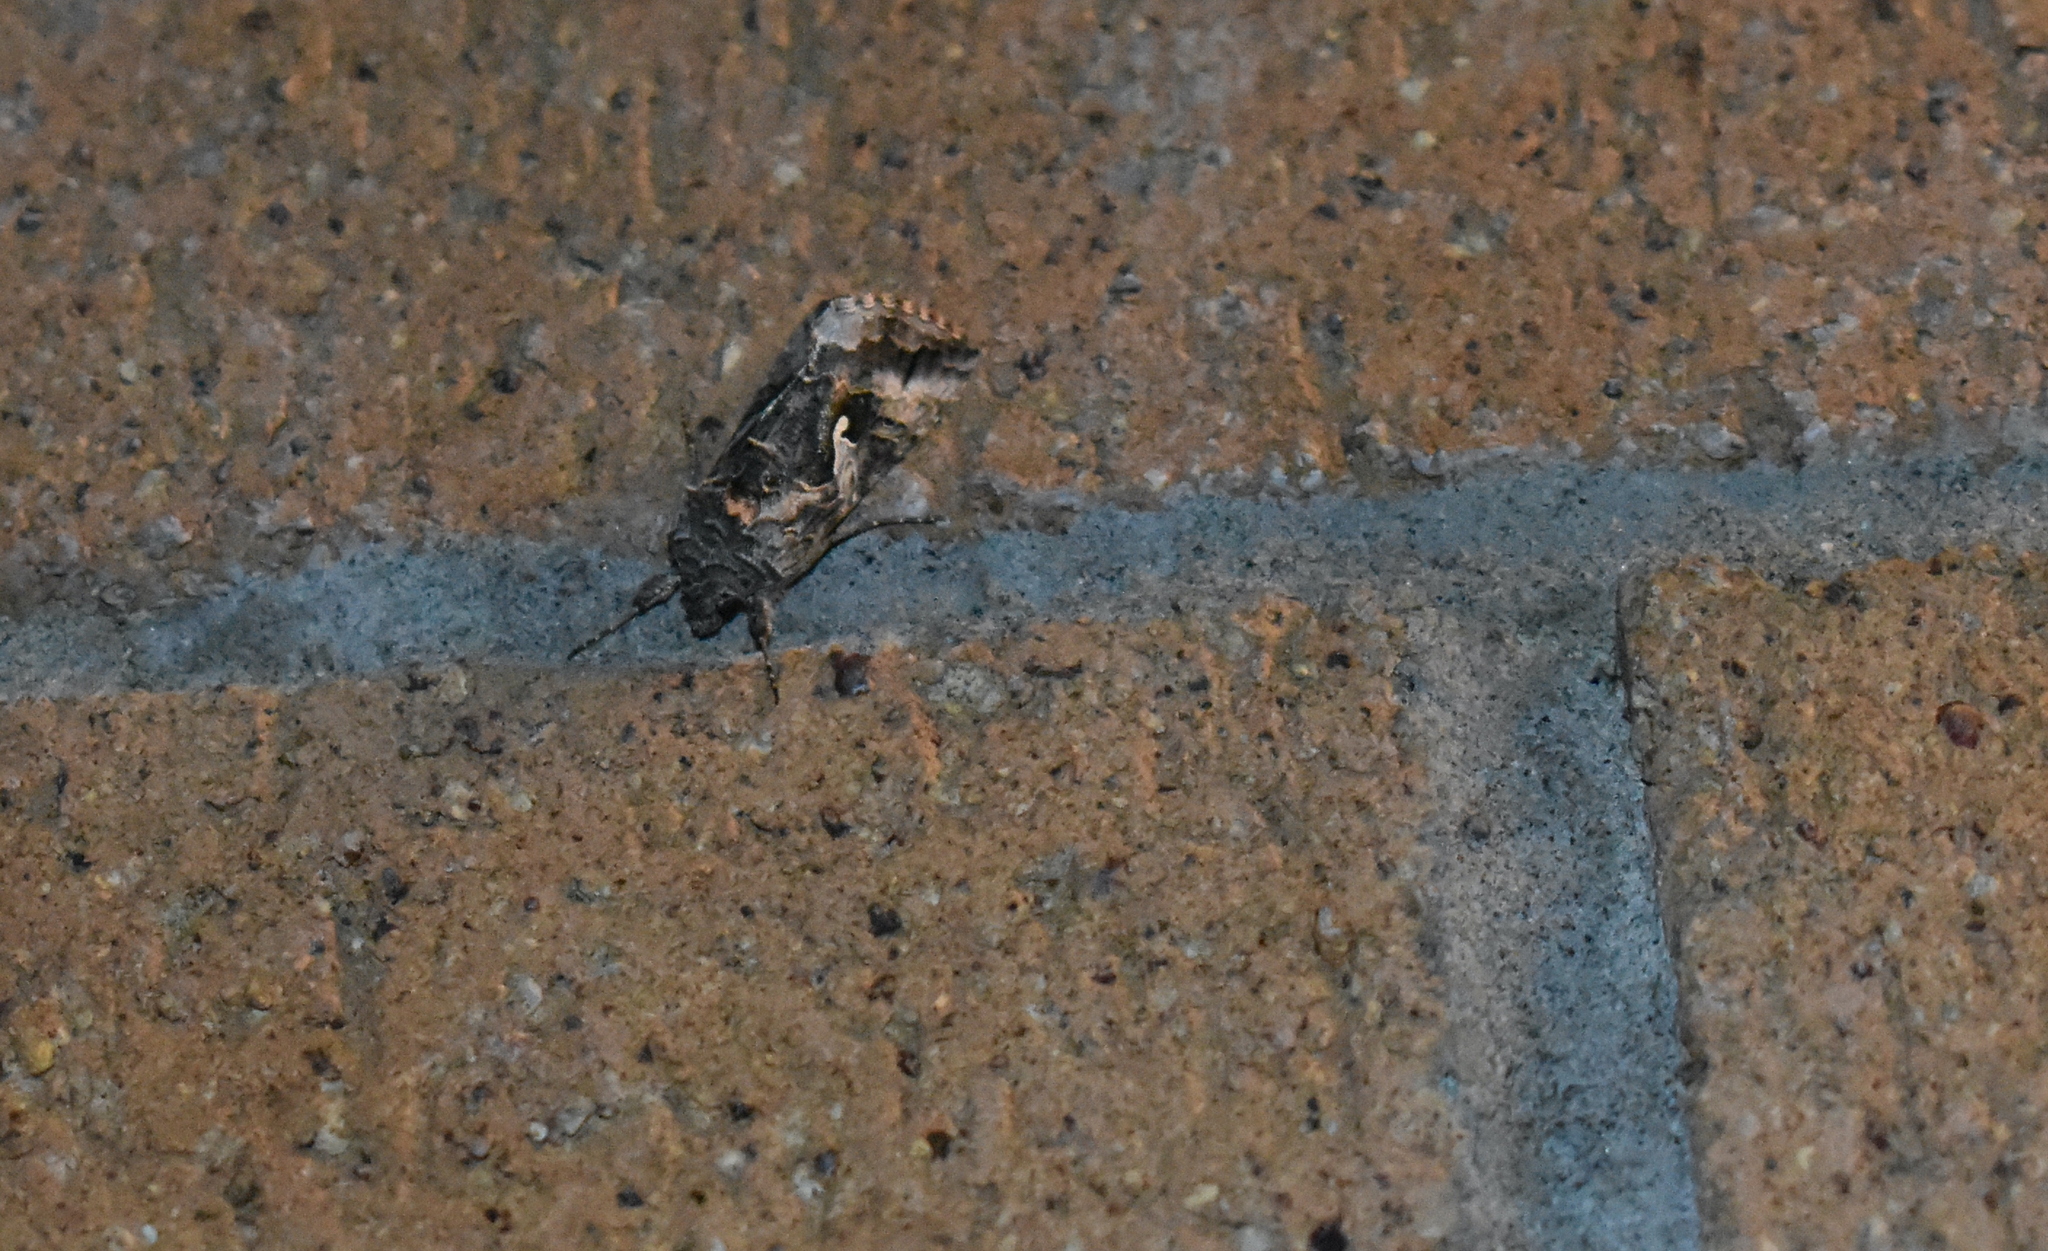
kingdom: Animalia
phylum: Arthropoda
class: Insecta
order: Lepidoptera
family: Noctuidae
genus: Autographa
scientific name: Autographa californica
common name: Alfalfa looper
